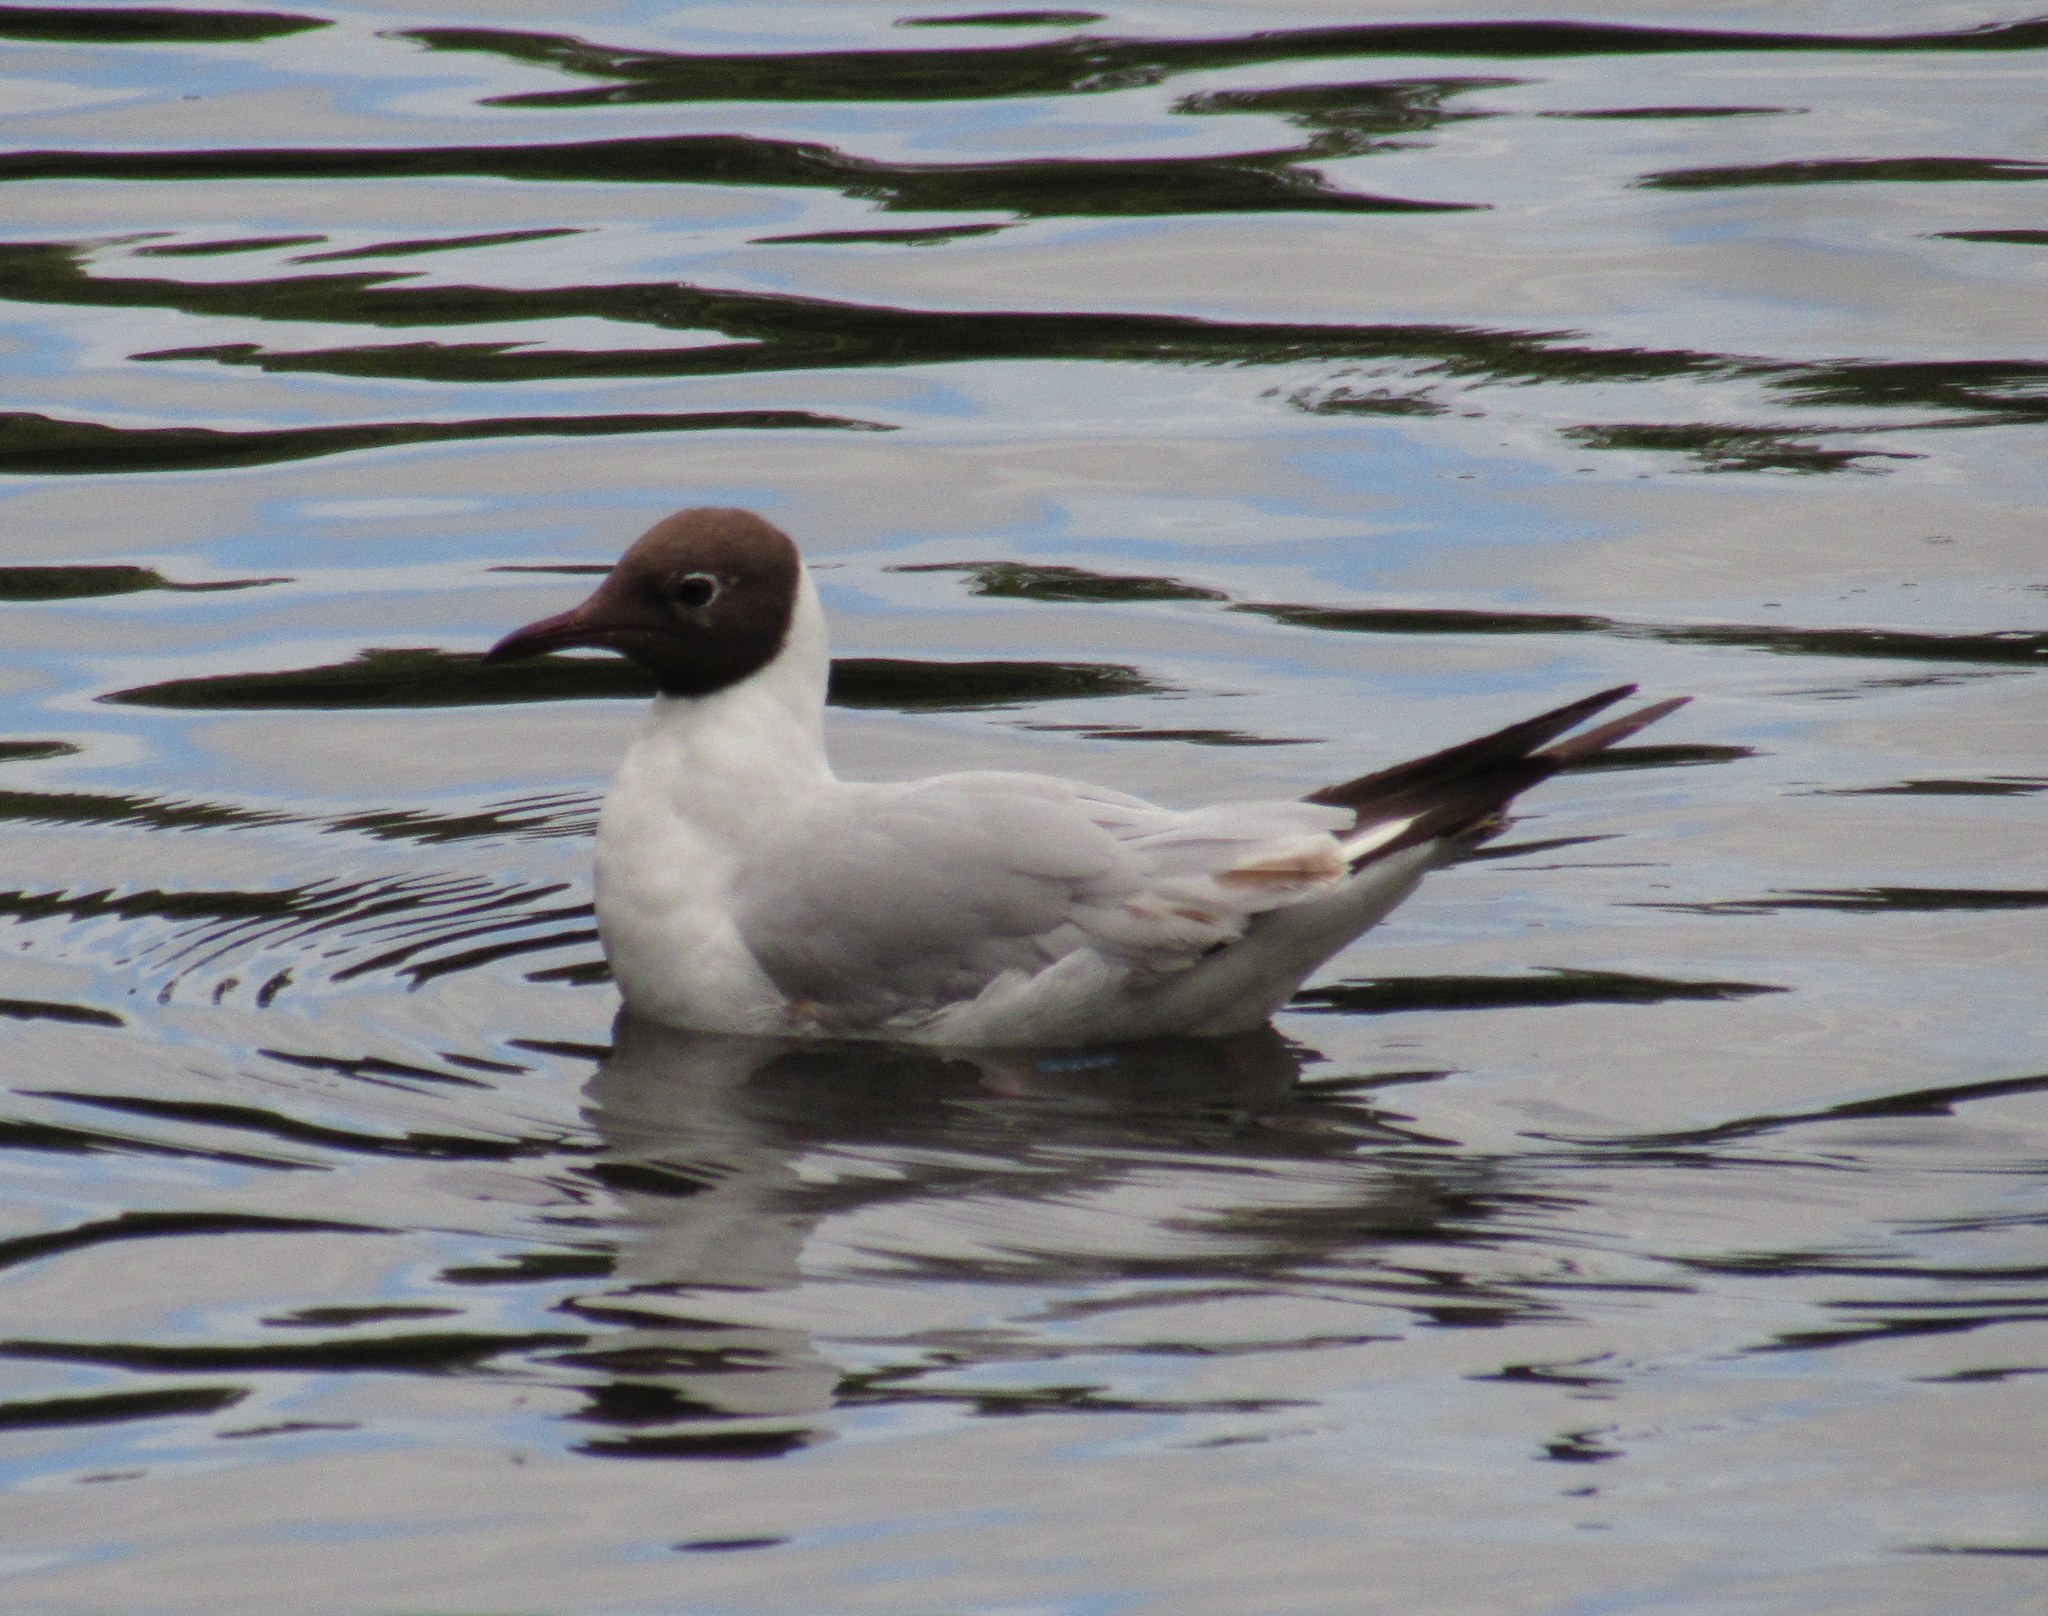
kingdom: Animalia
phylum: Chordata
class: Aves
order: Charadriiformes
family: Laridae
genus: Chroicocephalus
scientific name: Chroicocephalus ridibundus
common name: Black-headed gull
